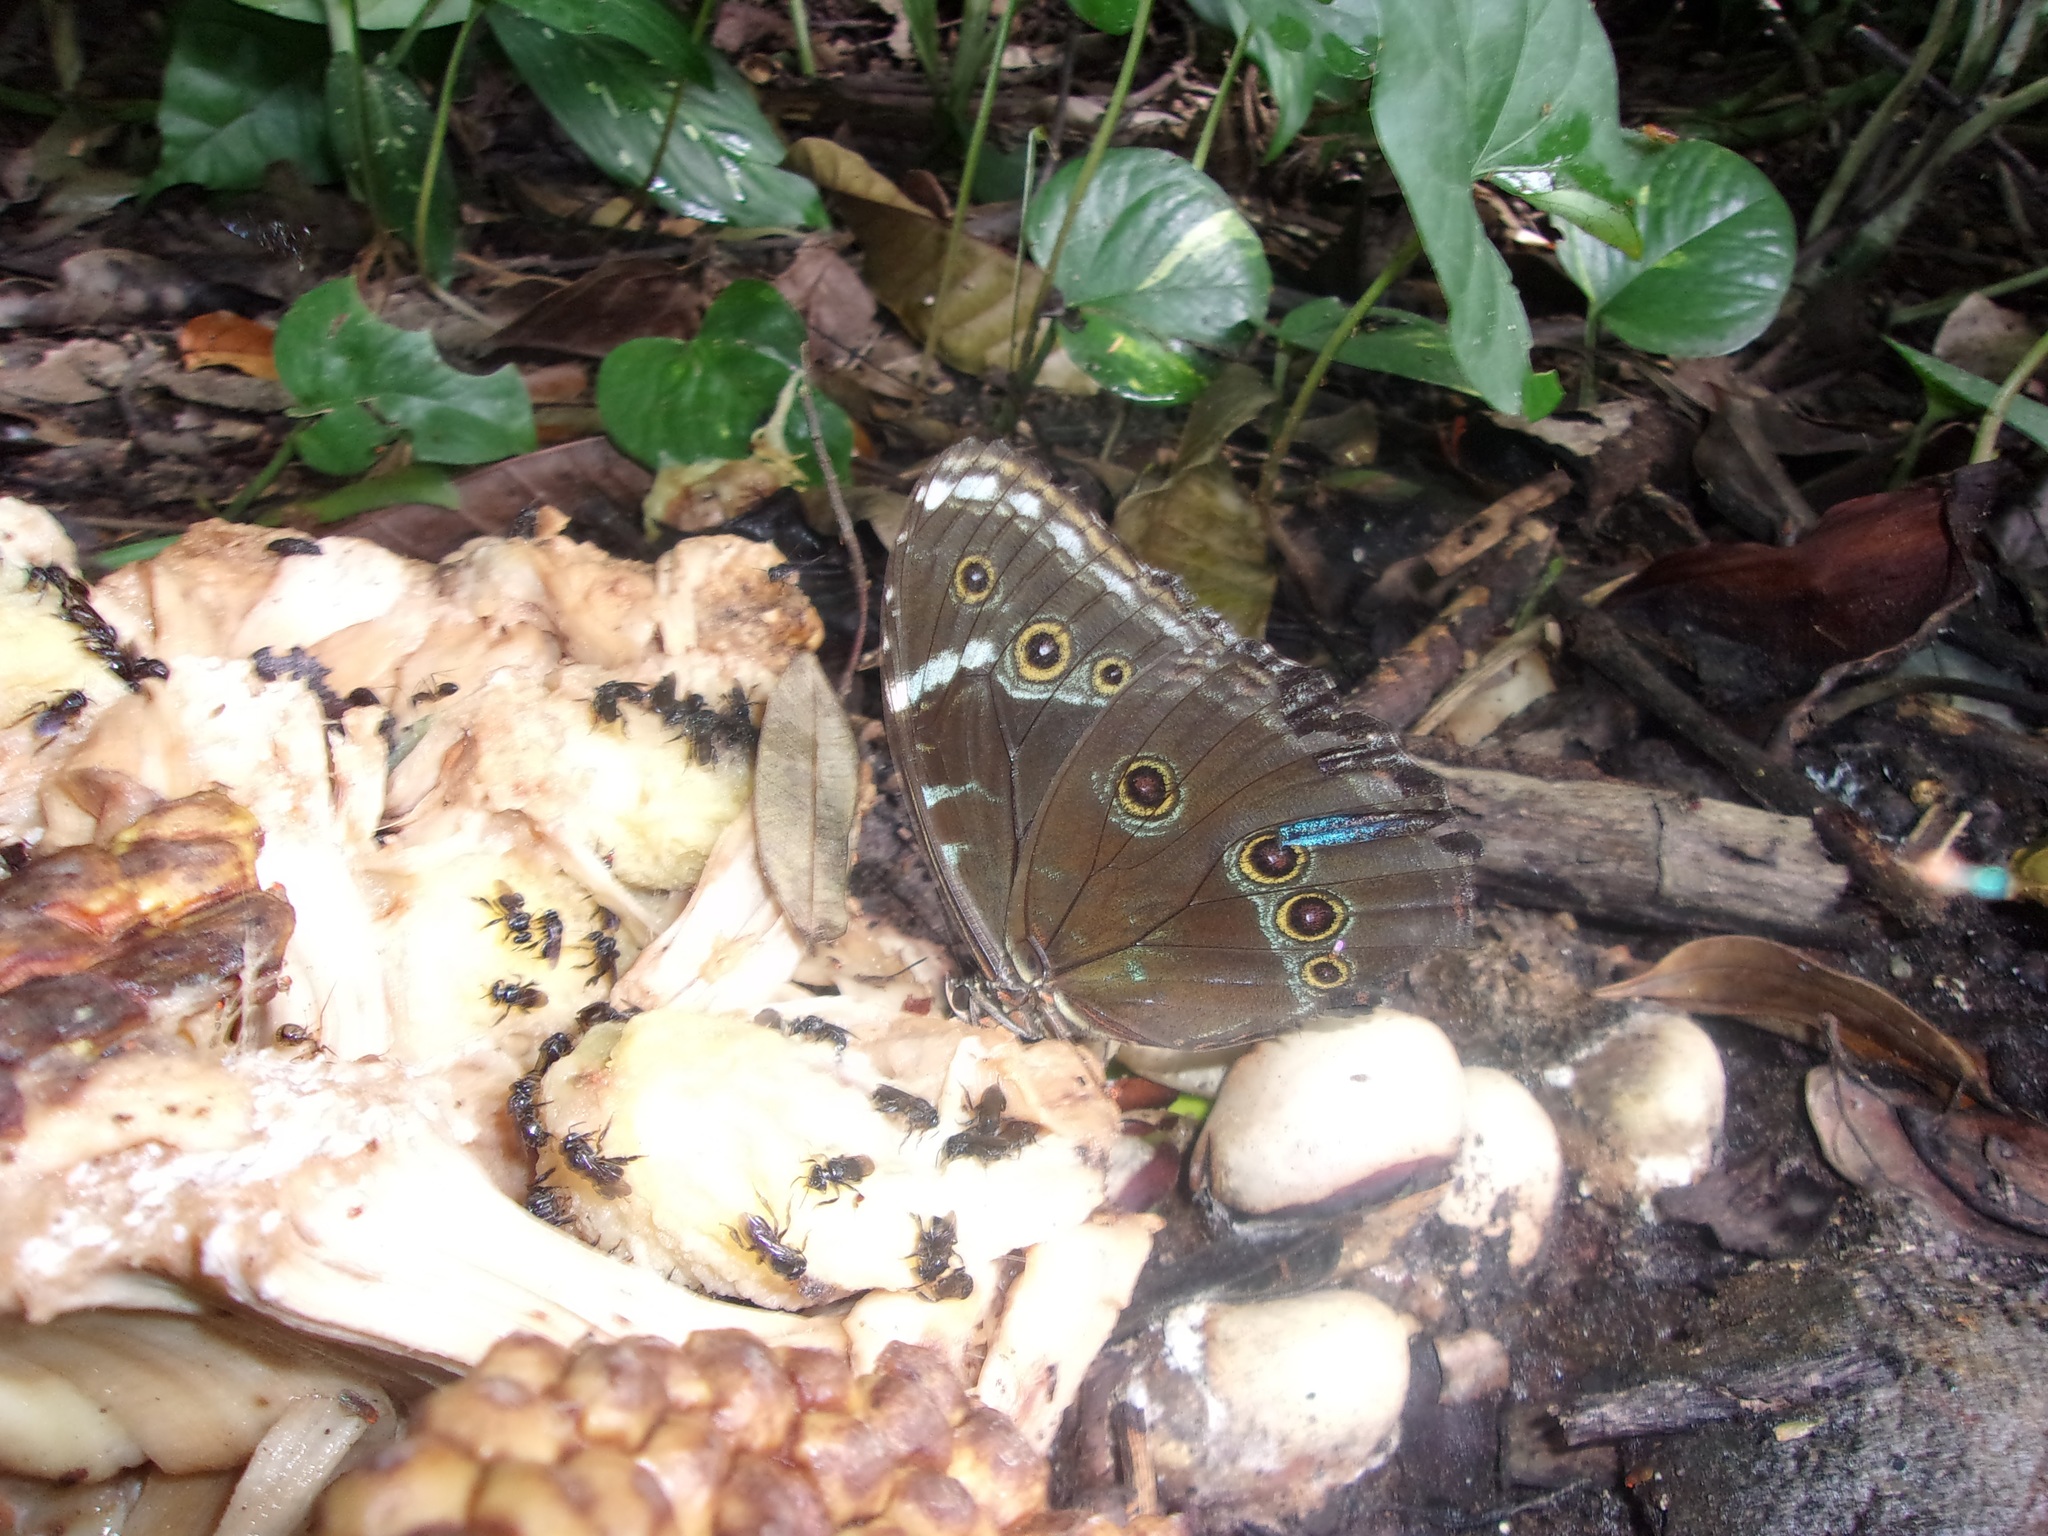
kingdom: Animalia
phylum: Arthropoda
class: Insecta
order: Lepidoptera
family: Nymphalidae
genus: Morpho
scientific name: Morpho helenor
